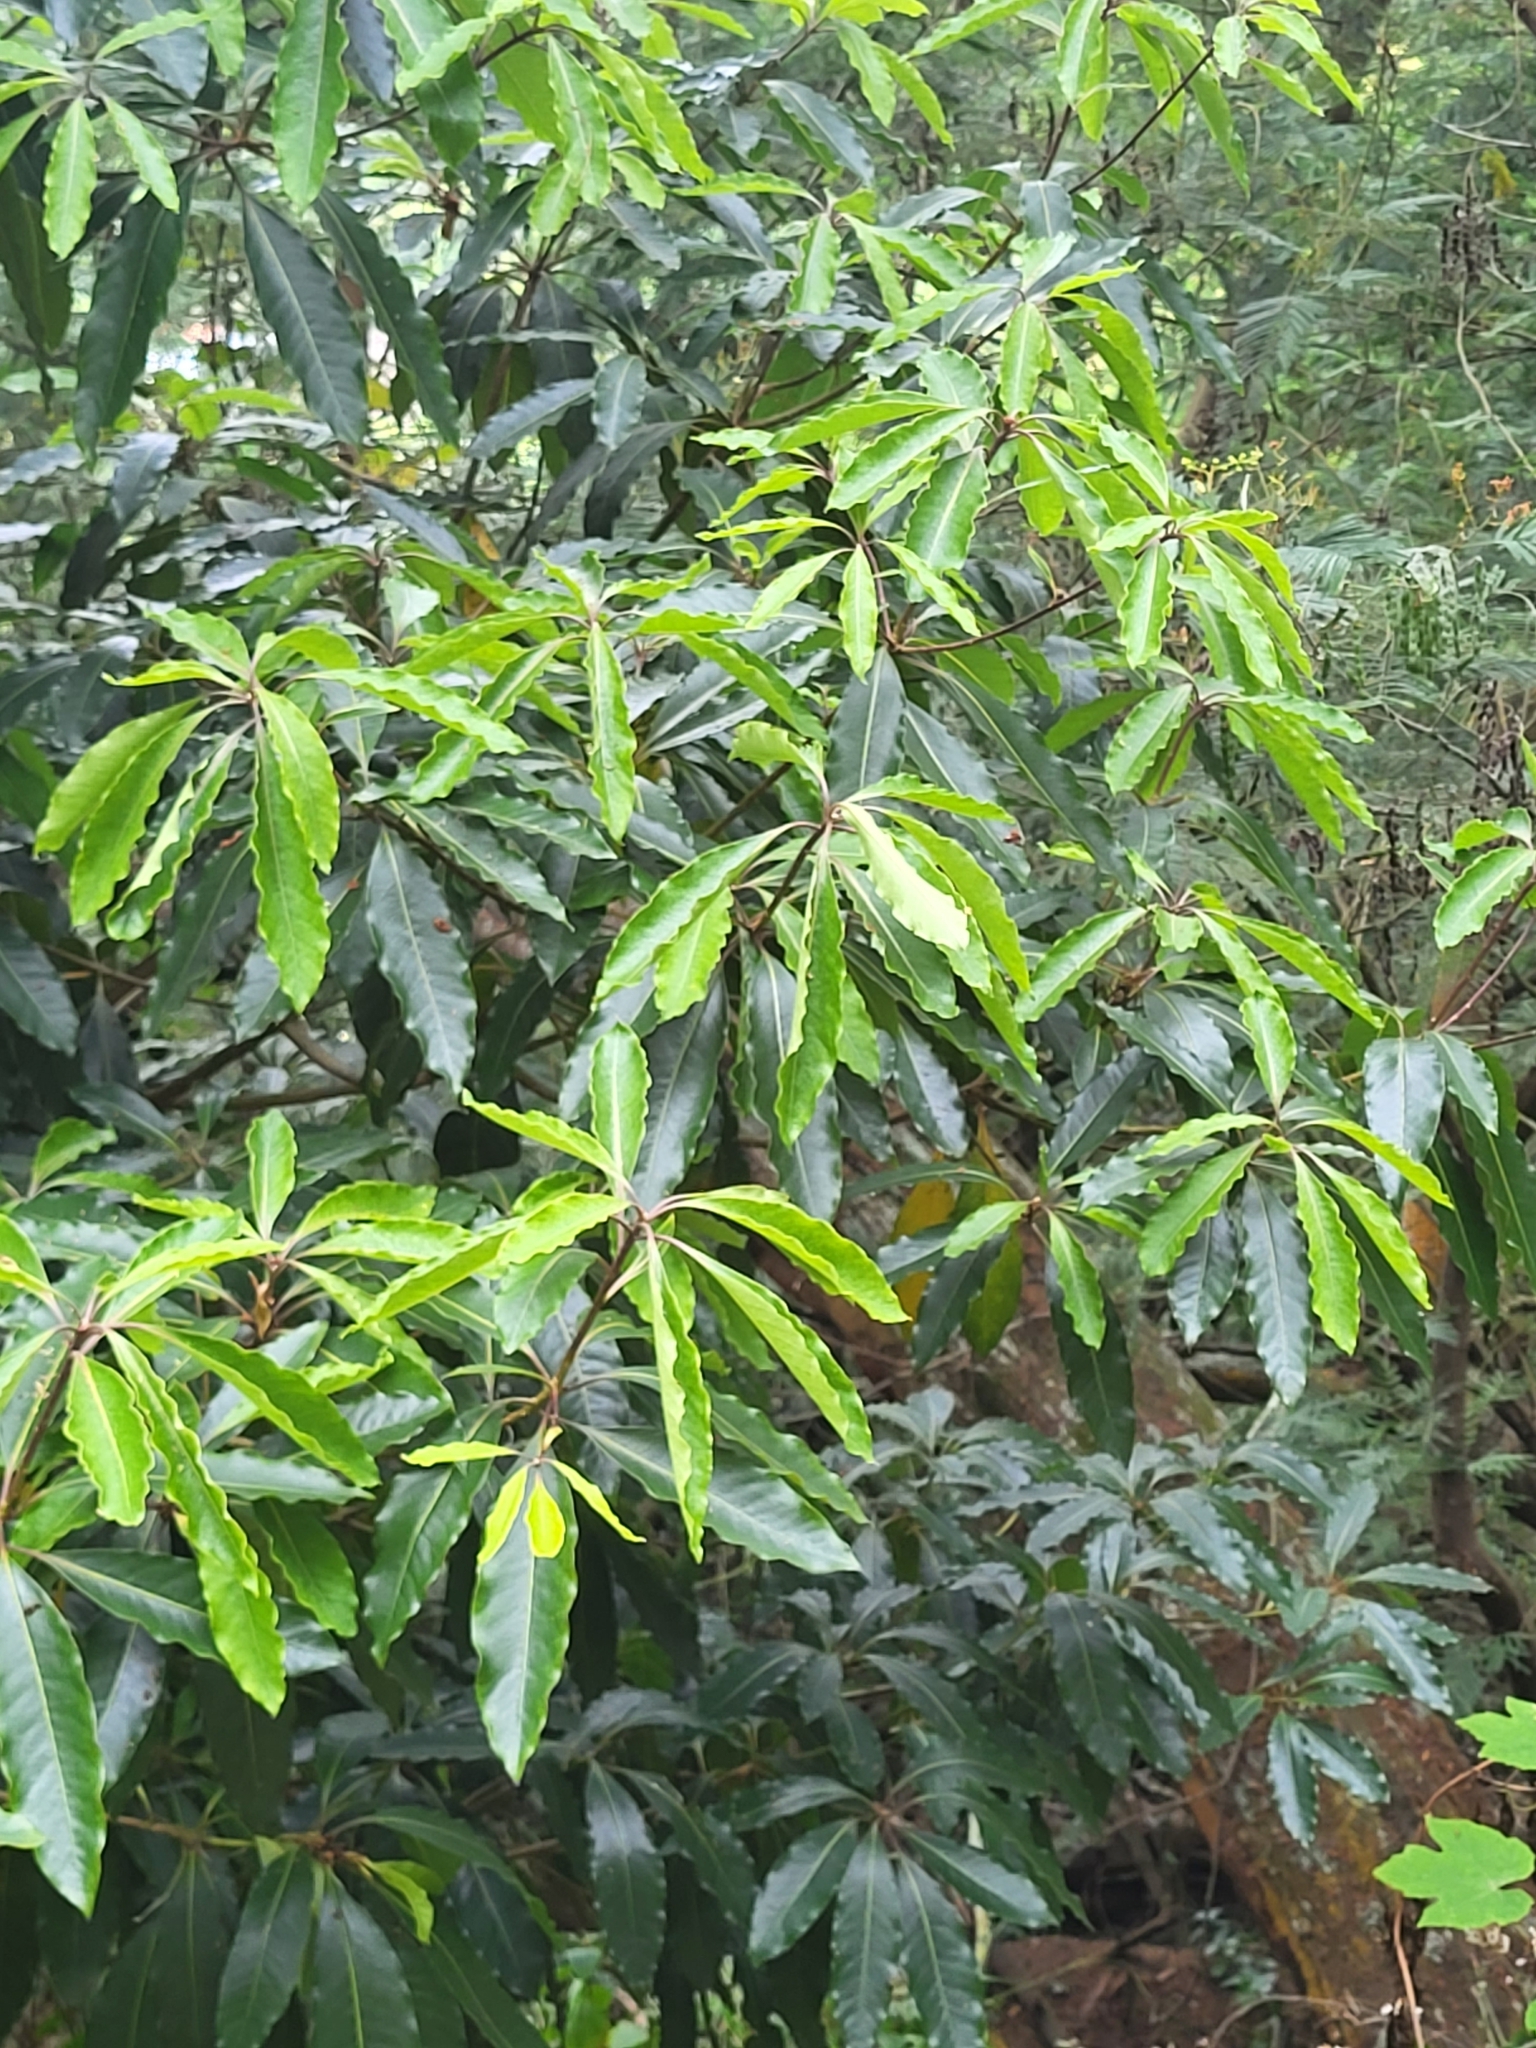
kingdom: Plantae
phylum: Tracheophyta
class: Magnoliopsida
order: Apiales
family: Pittosporaceae
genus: Pittosporum
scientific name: Pittosporum undulatum
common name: Australian cheesewood
